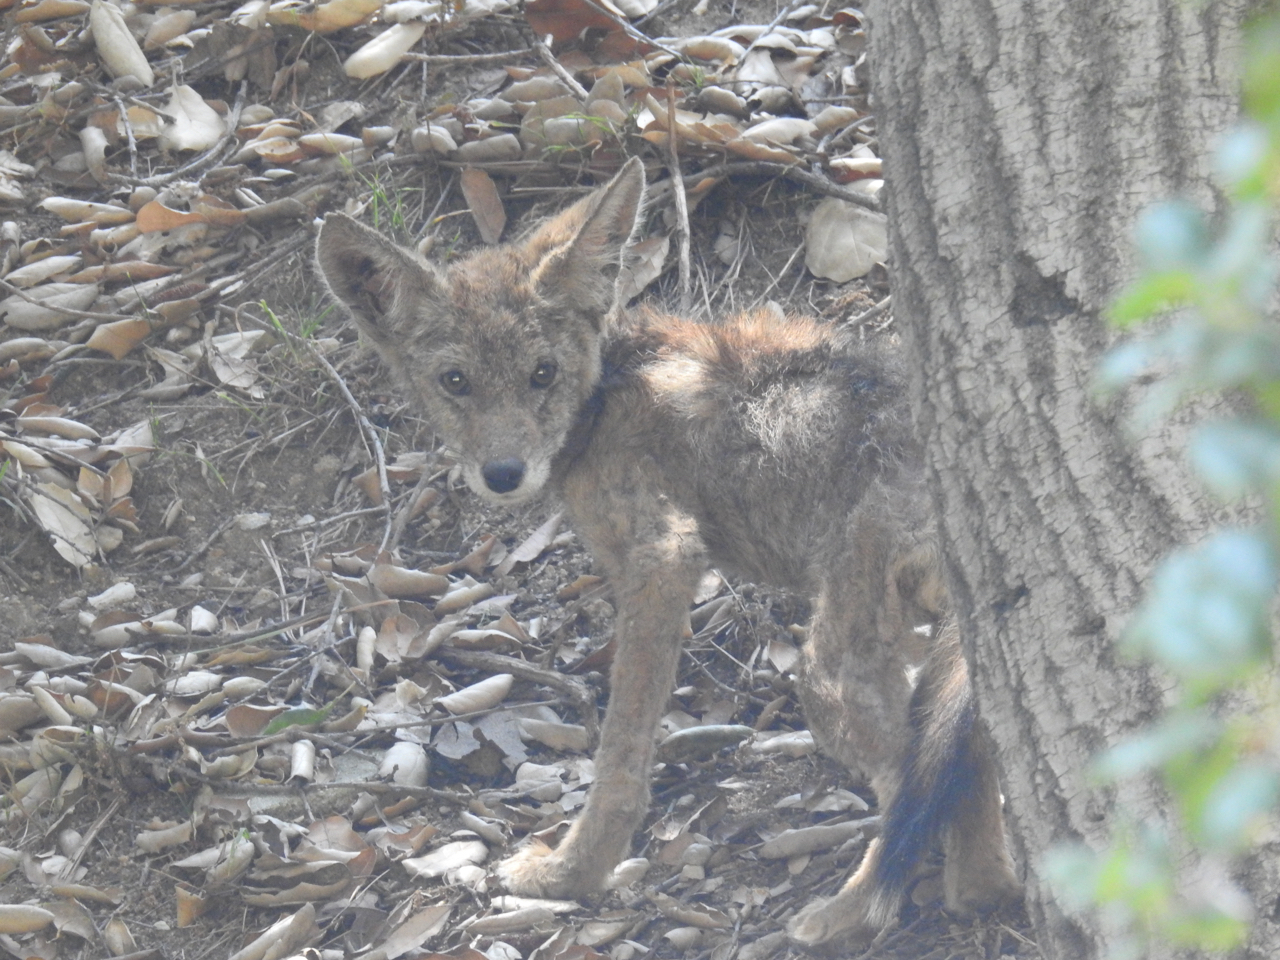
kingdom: Animalia
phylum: Chordata
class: Mammalia
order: Carnivora
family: Canidae
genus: Canis
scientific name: Canis latrans
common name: Coyote
